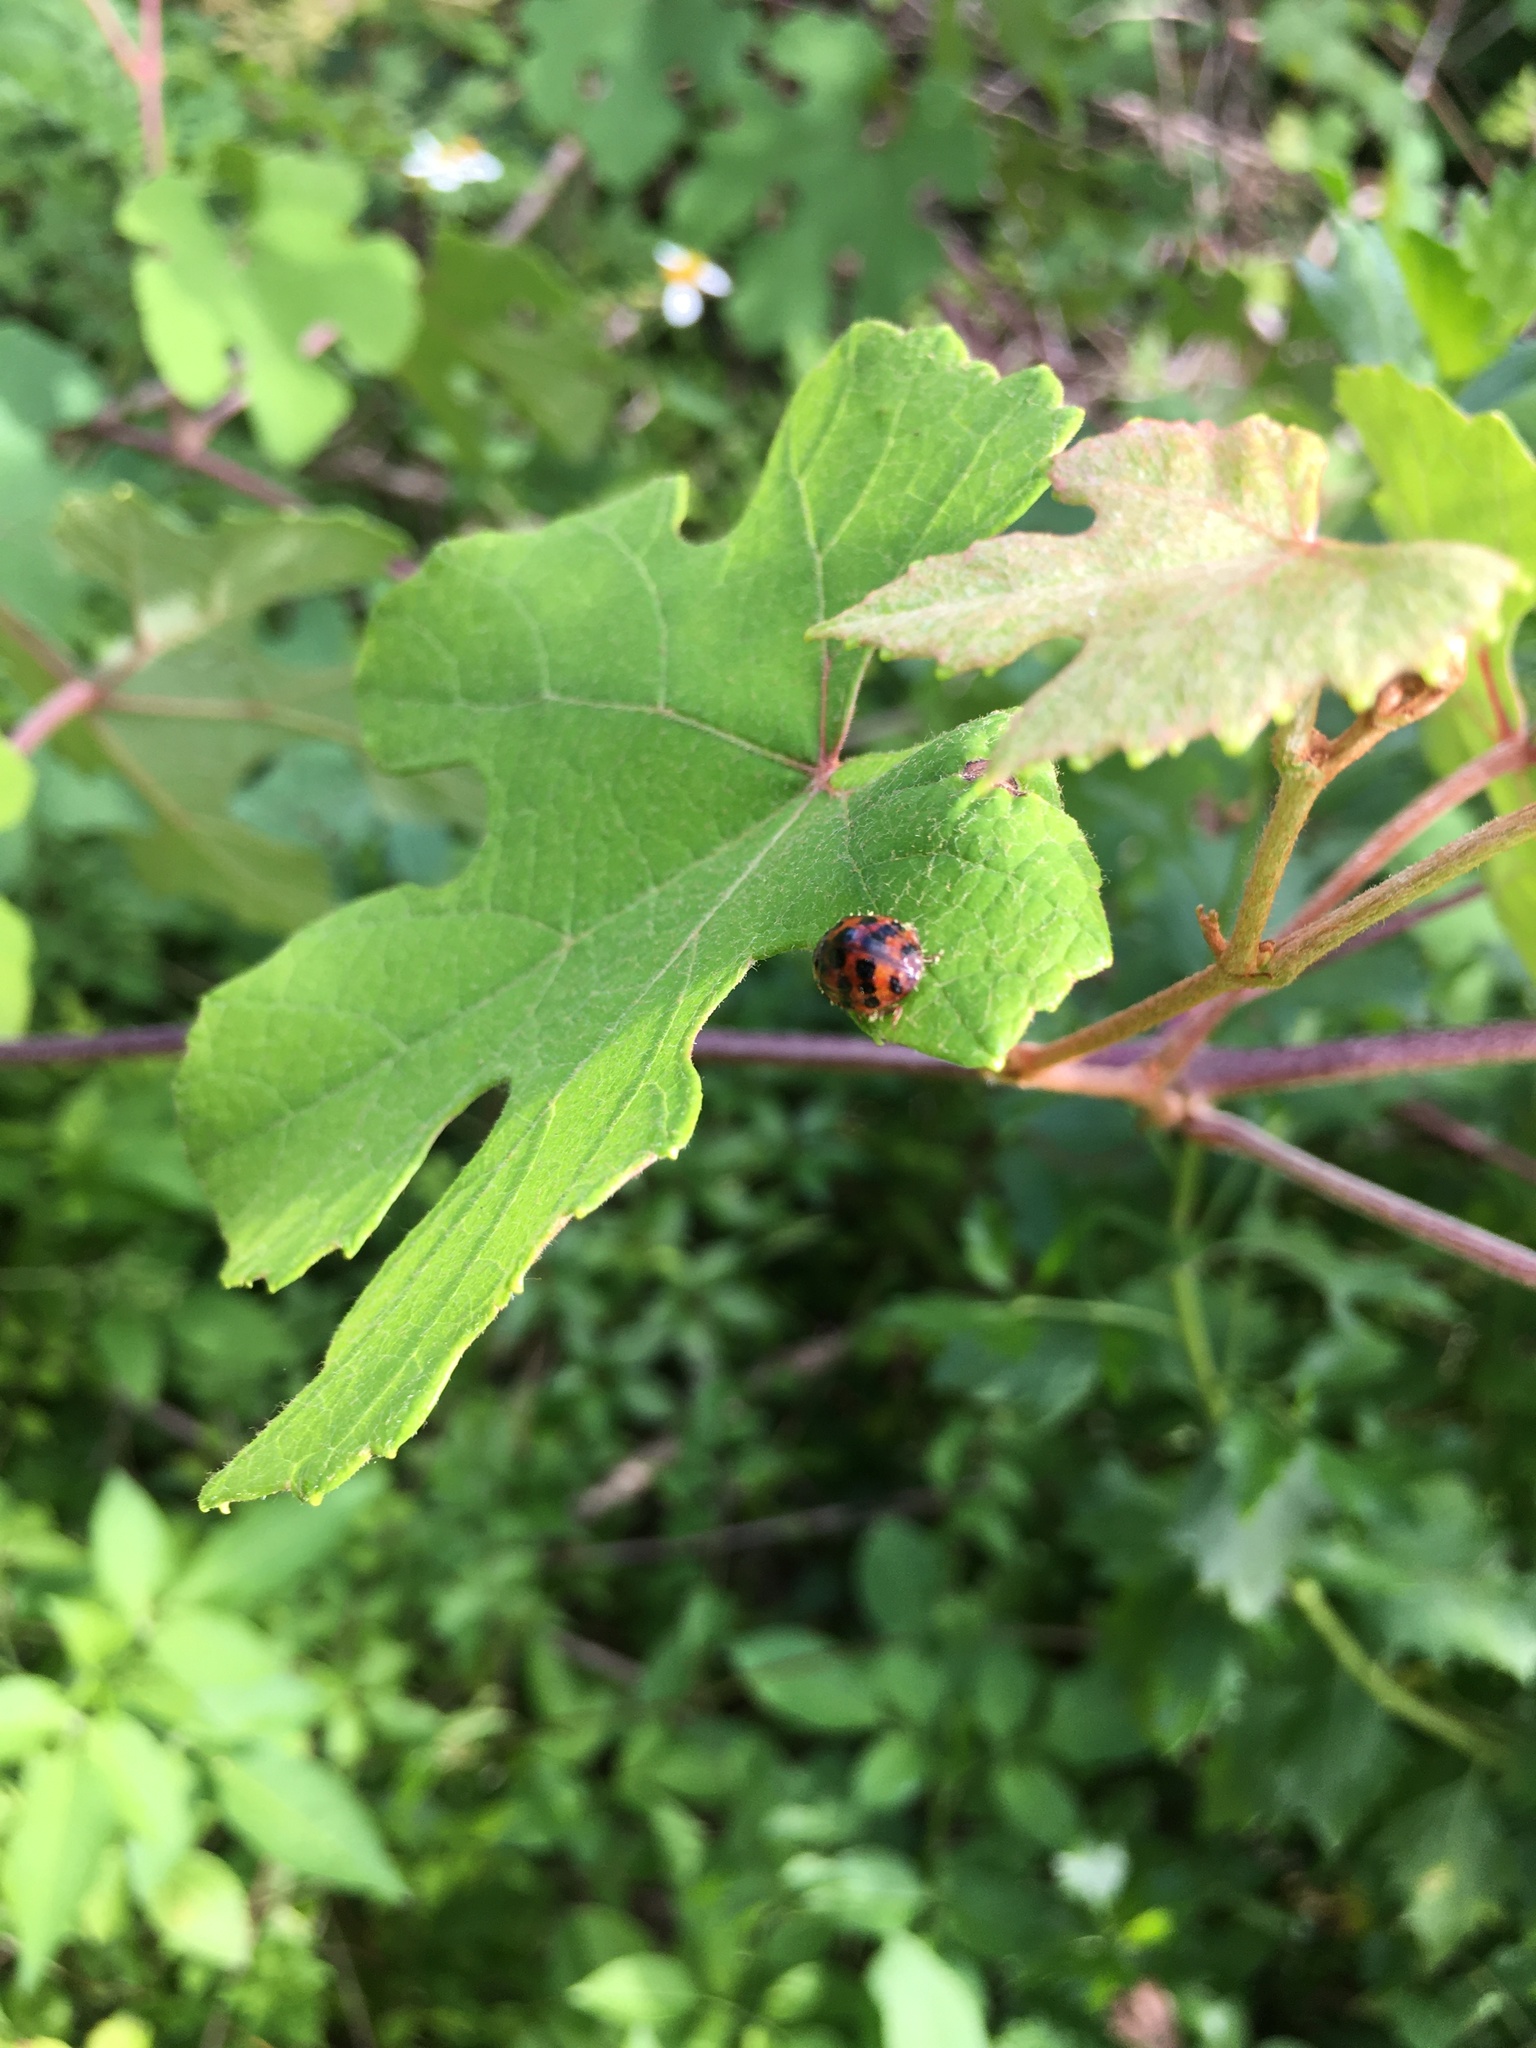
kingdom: Plantae
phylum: Tracheophyta
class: Magnoliopsida
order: Vitales
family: Vitaceae
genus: Vitis
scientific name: Vitis aestivalis
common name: Pigeon grape
